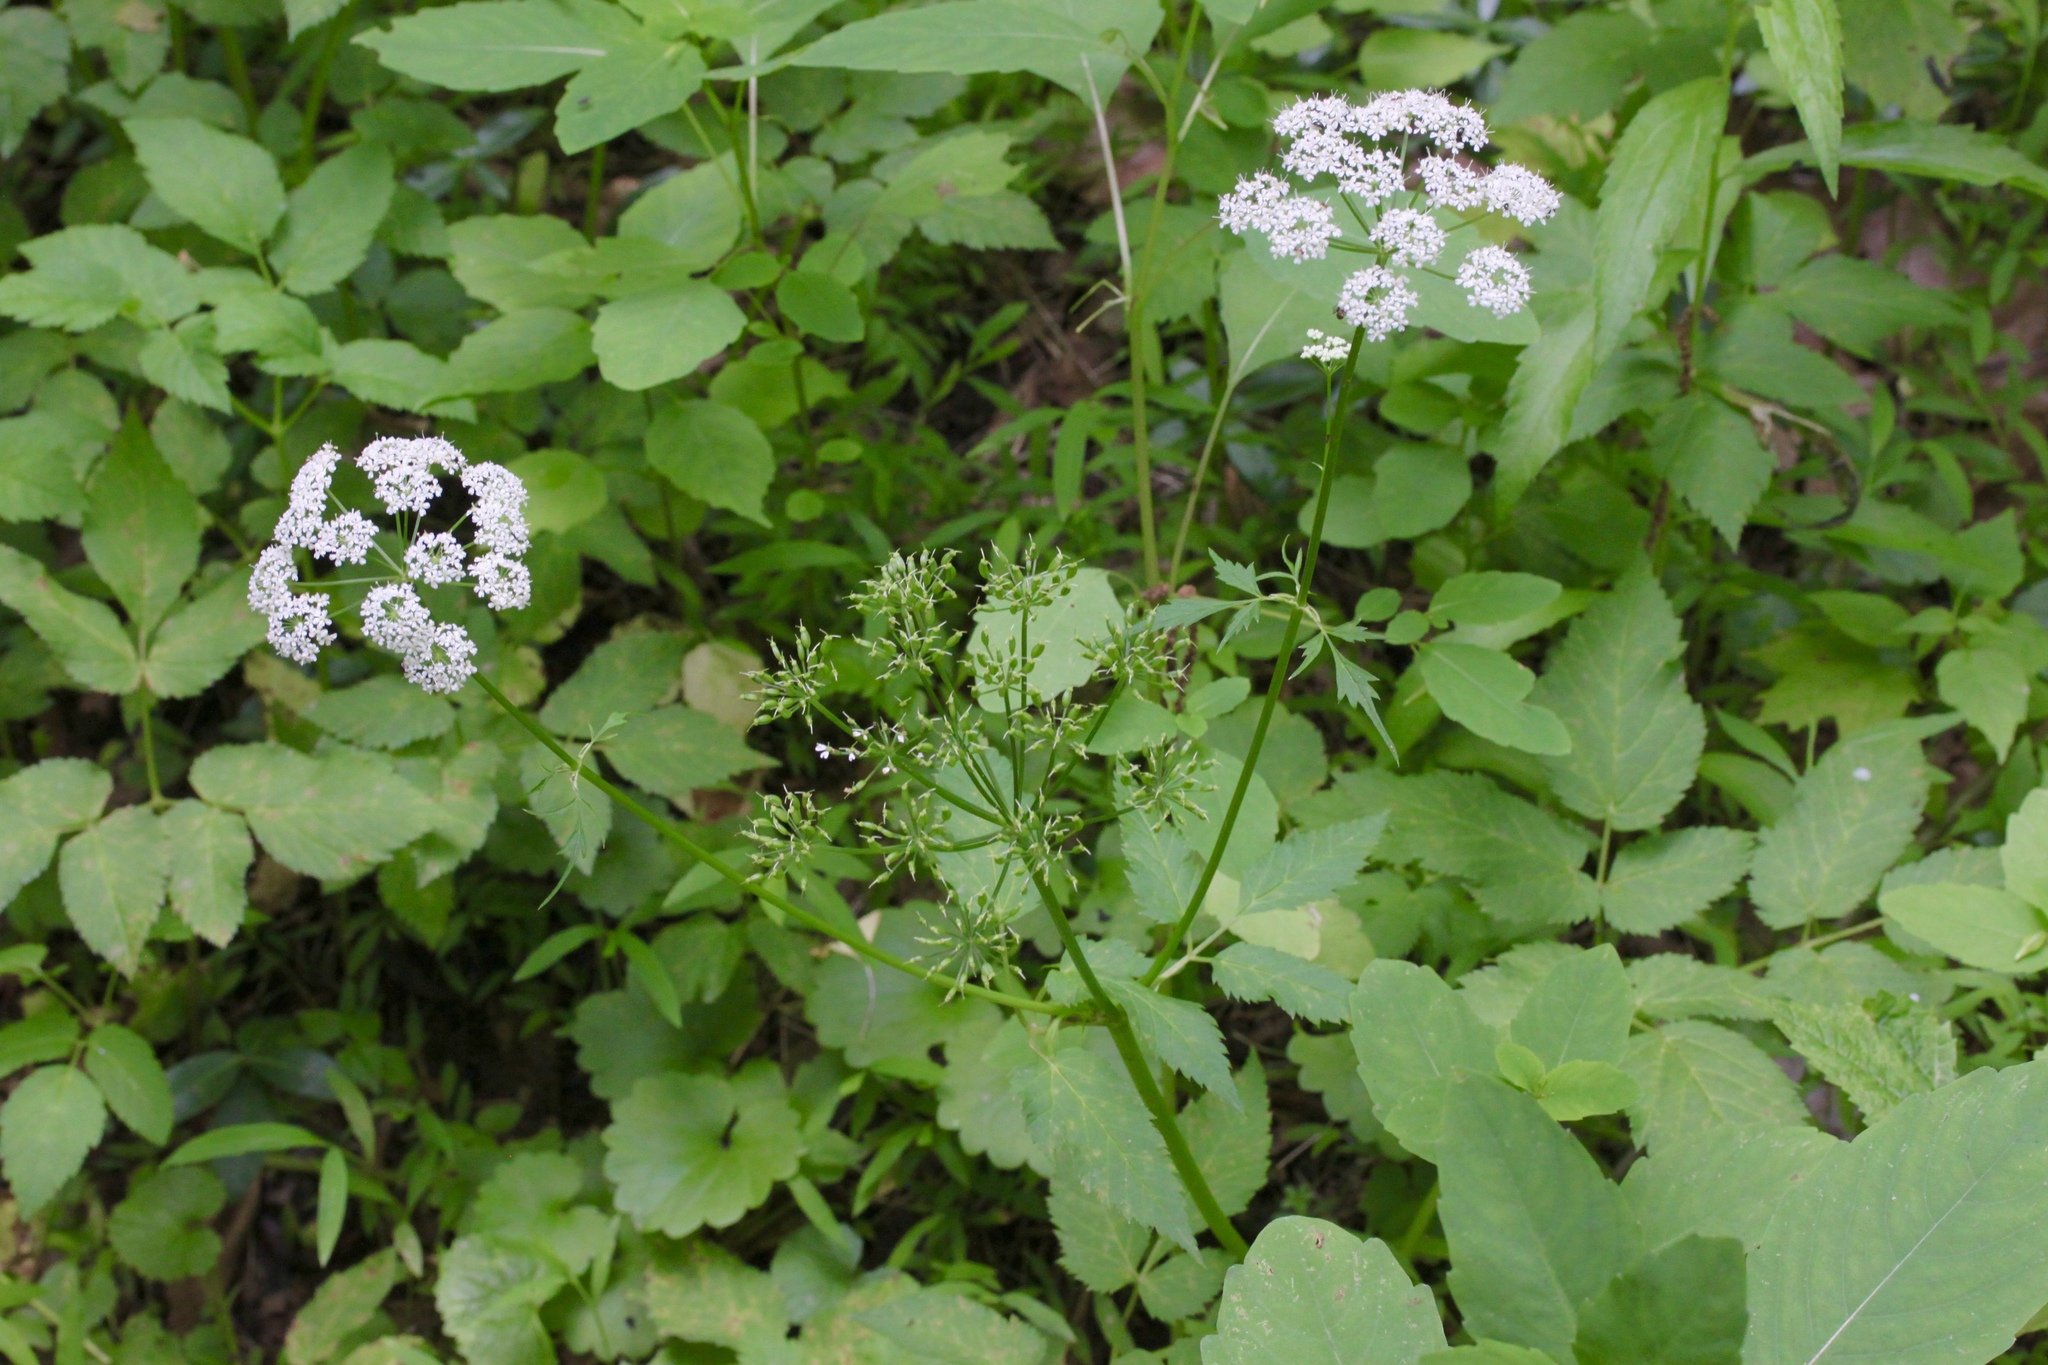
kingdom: Plantae
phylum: Tracheophyta
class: Magnoliopsida
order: Apiales
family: Apiaceae
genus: Aegopodium
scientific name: Aegopodium podagraria
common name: Ground-elder
